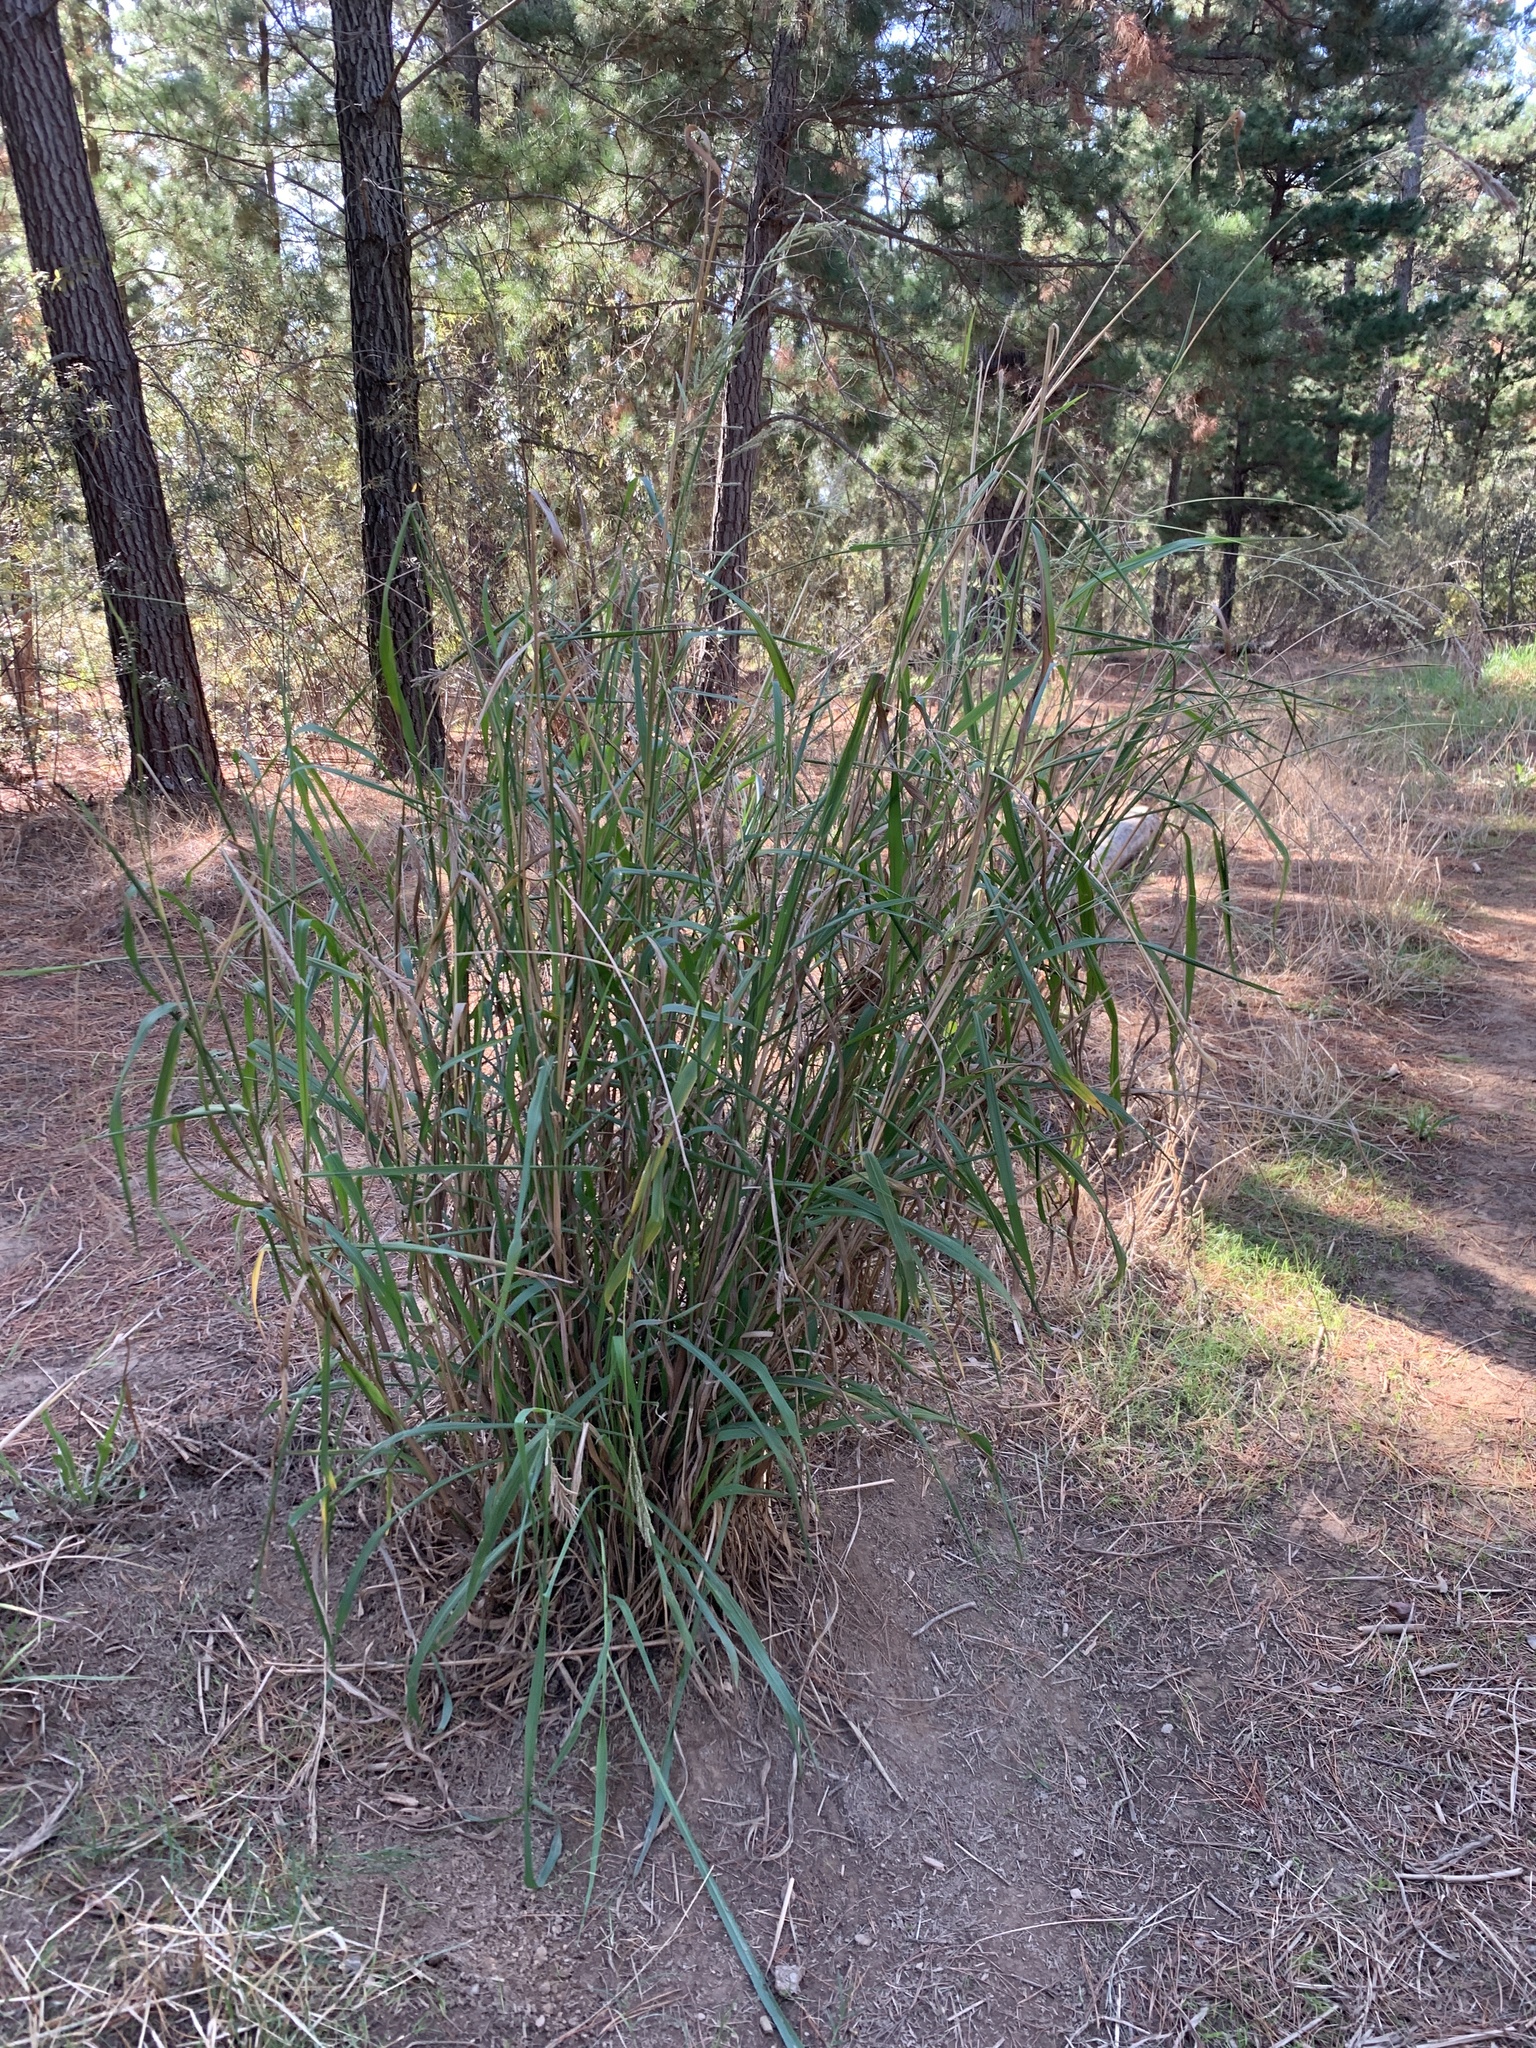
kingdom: Plantae
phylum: Tracheophyta
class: Liliopsida
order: Poales
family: Poaceae
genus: Paspalum
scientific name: Paspalum urvillei
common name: Vasey's grass
